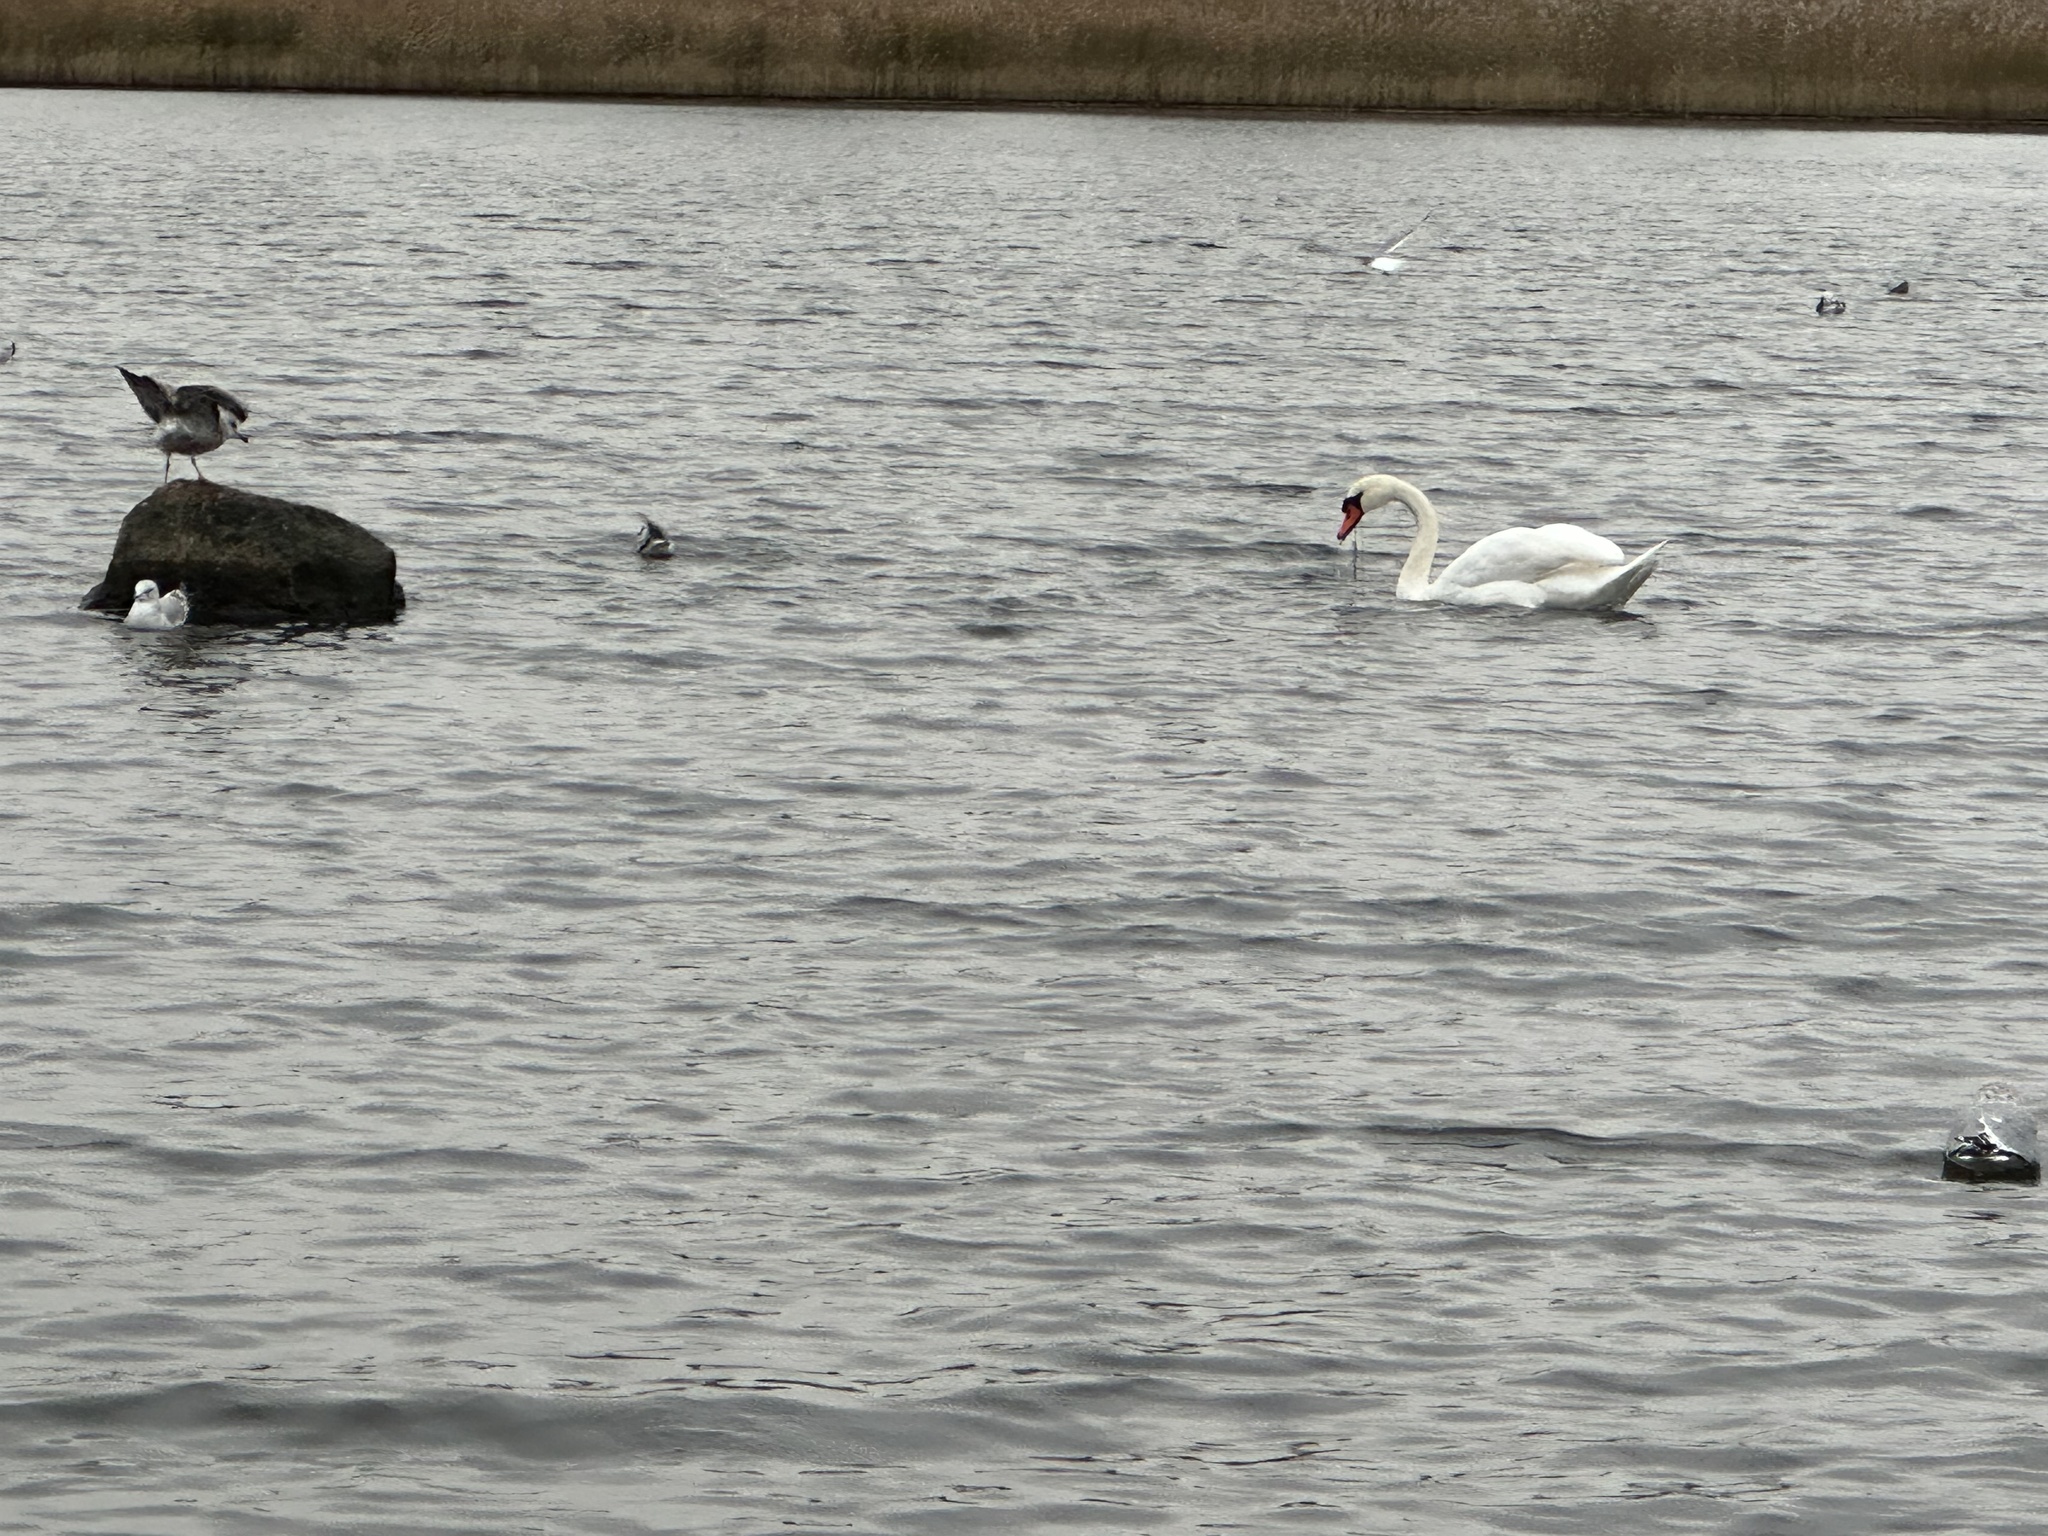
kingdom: Animalia
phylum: Chordata
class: Aves
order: Anseriformes
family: Anatidae
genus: Cygnus
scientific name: Cygnus olor
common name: Mute swan
